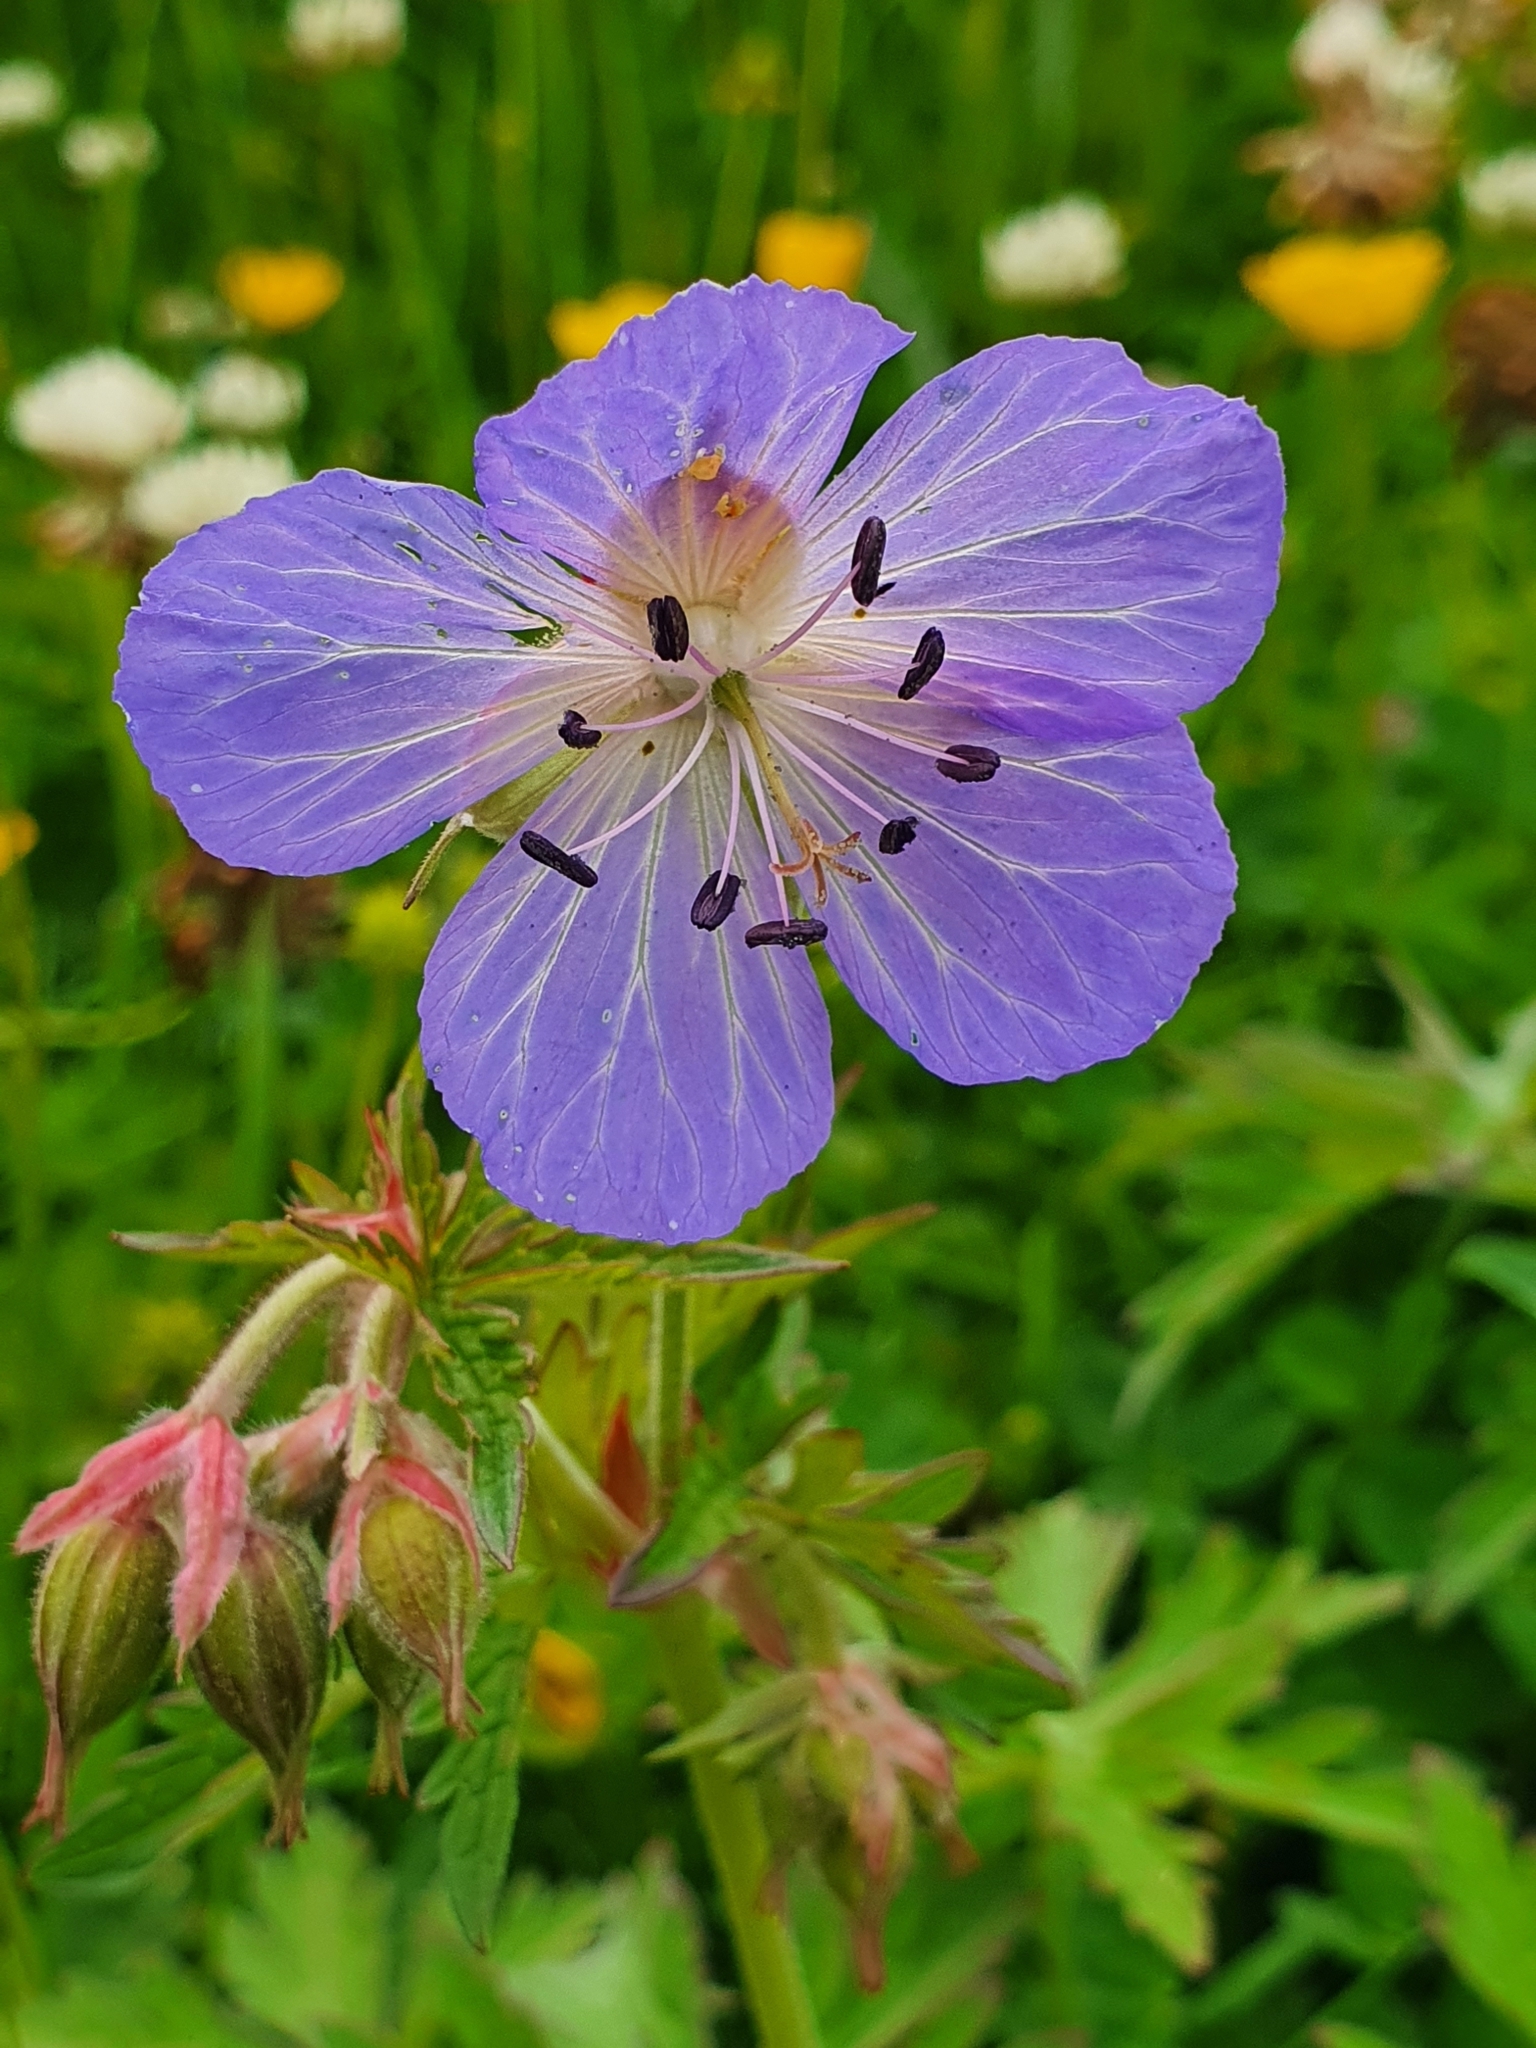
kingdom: Plantae
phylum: Tracheophyta
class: Magnoliopsida
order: Geraniales
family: Geraniaceae
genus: Geranium
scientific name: Geranium pratense
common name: Meadow crane's-bill
